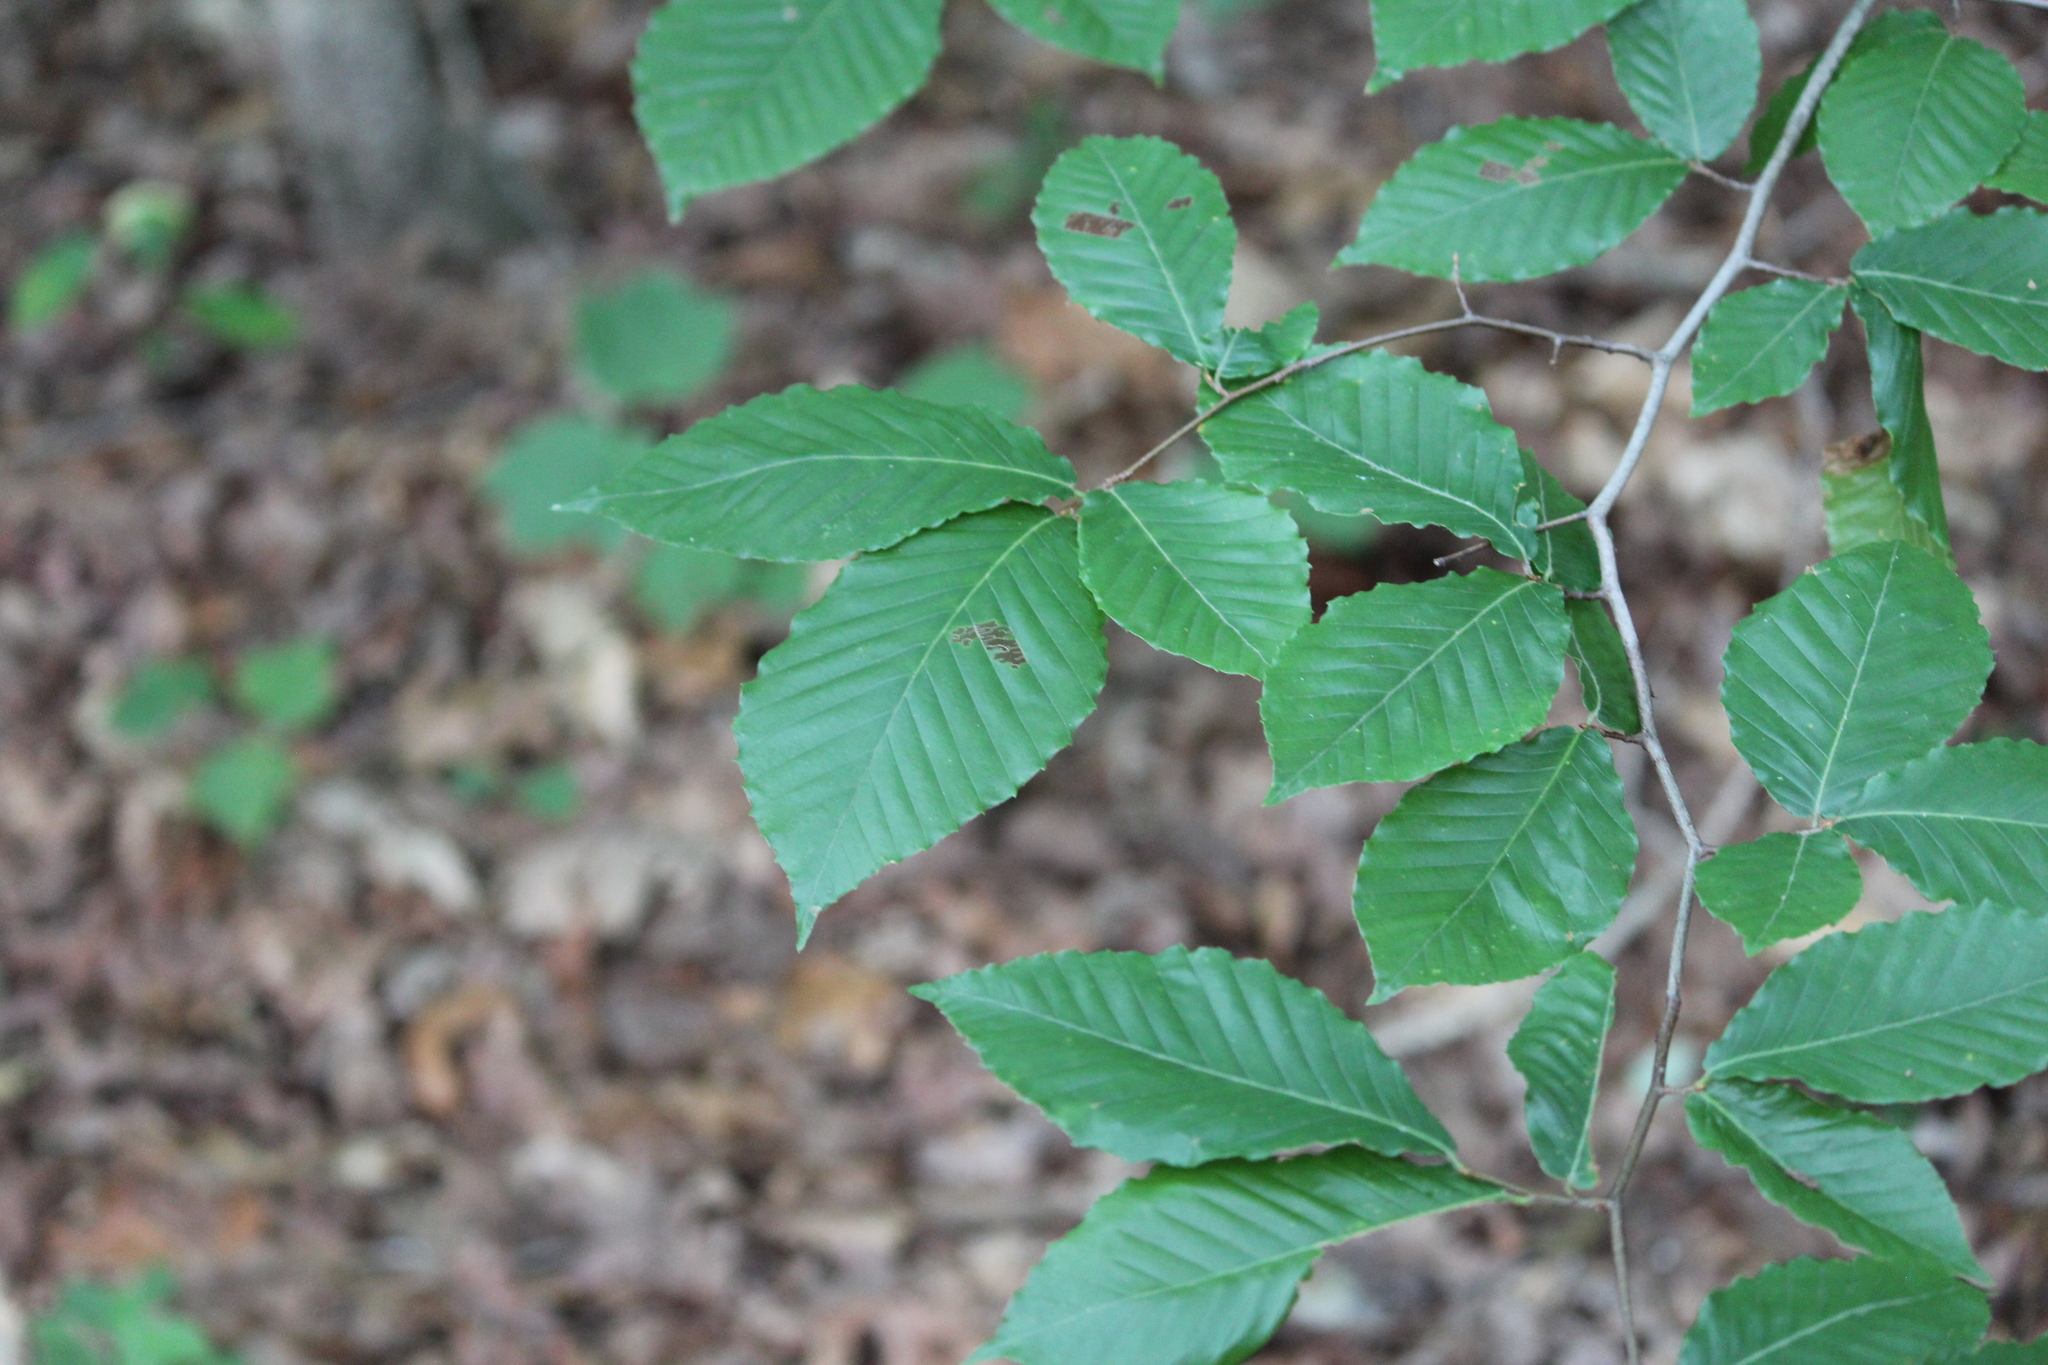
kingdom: Plantae
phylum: Tracheophyta
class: Magnoliopsida
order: Fagales
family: Fagaceae
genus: Fagus
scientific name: Fagus grandifolia
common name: American beech
